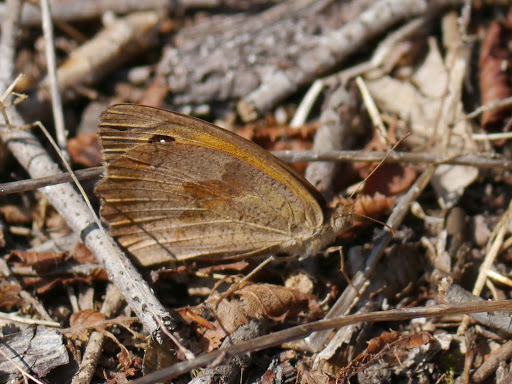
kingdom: Animalia
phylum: Arthropoda
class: Insecta
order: Lepidoptera
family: Nymphalidae
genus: Maniola
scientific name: Maniola jurtina
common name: Meadow brown
